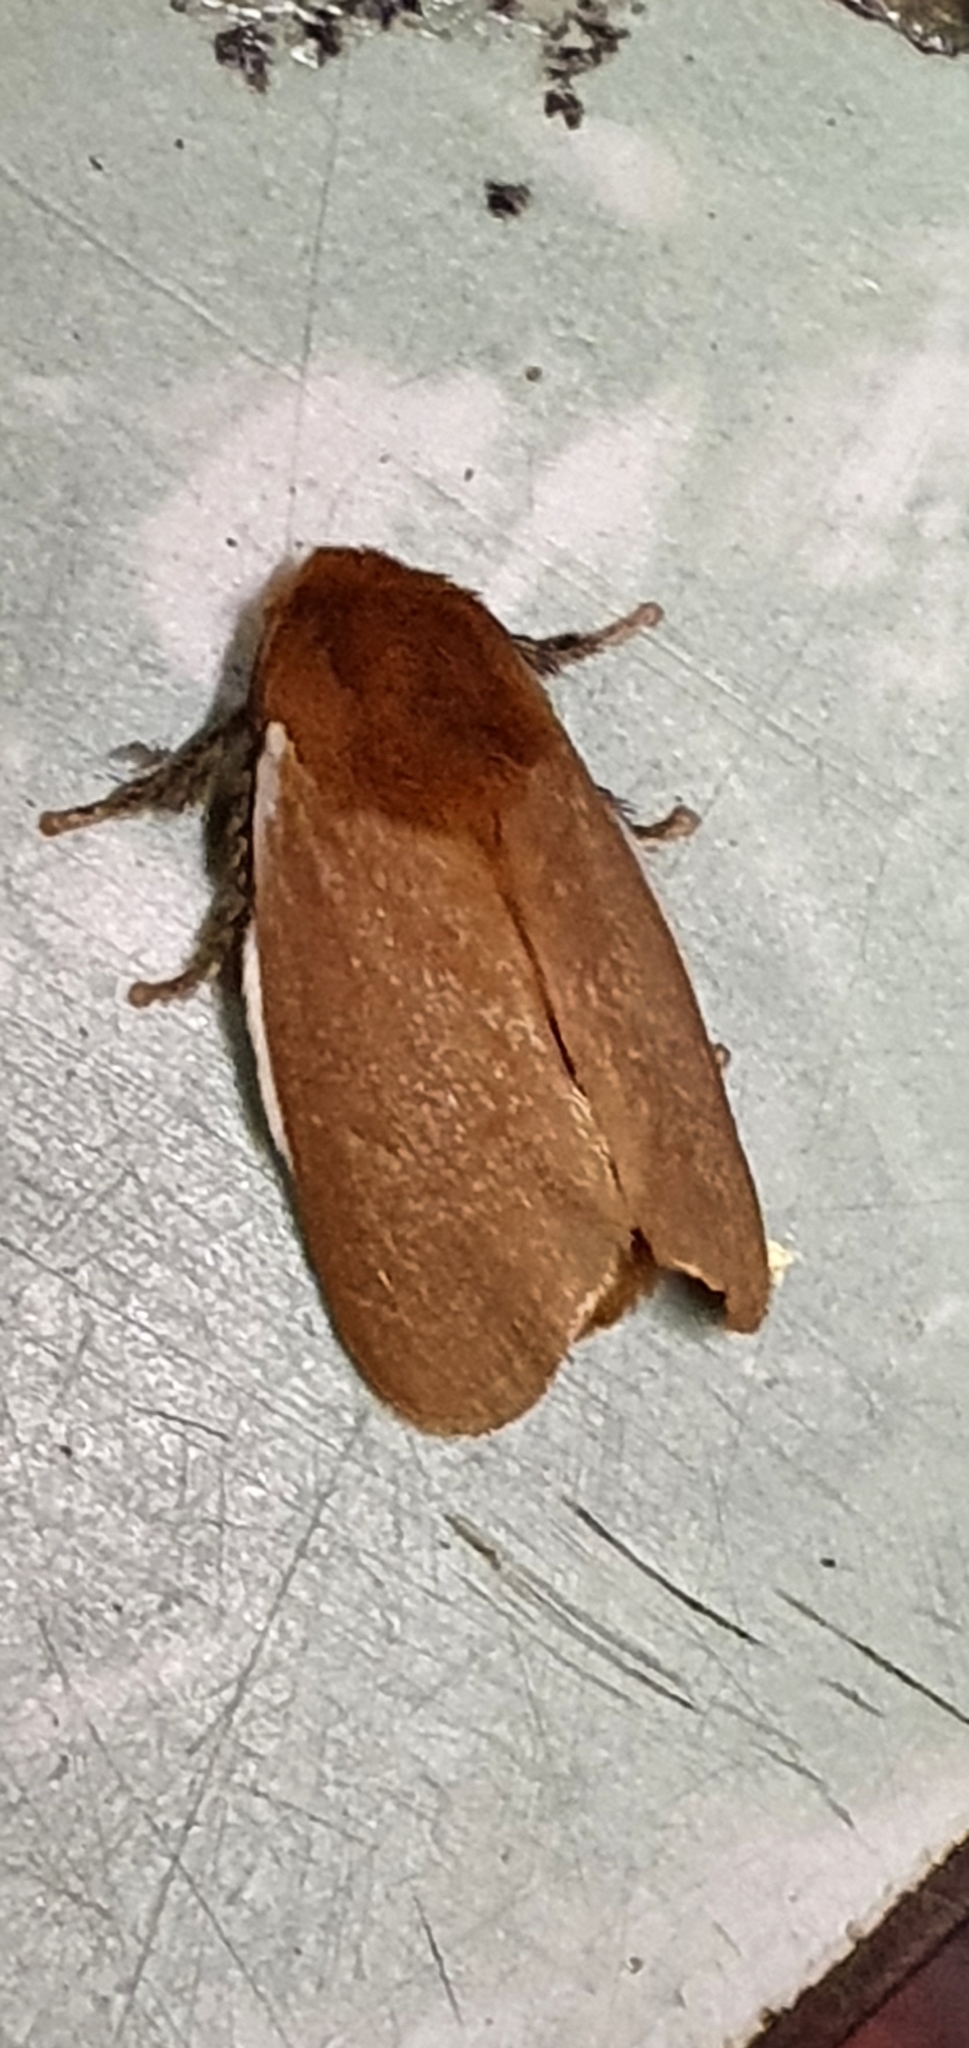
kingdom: Animalia
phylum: Arthropoda
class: Insecta
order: Lepidoptera
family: Limacodidae
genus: Comana
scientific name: Comana albibasis
